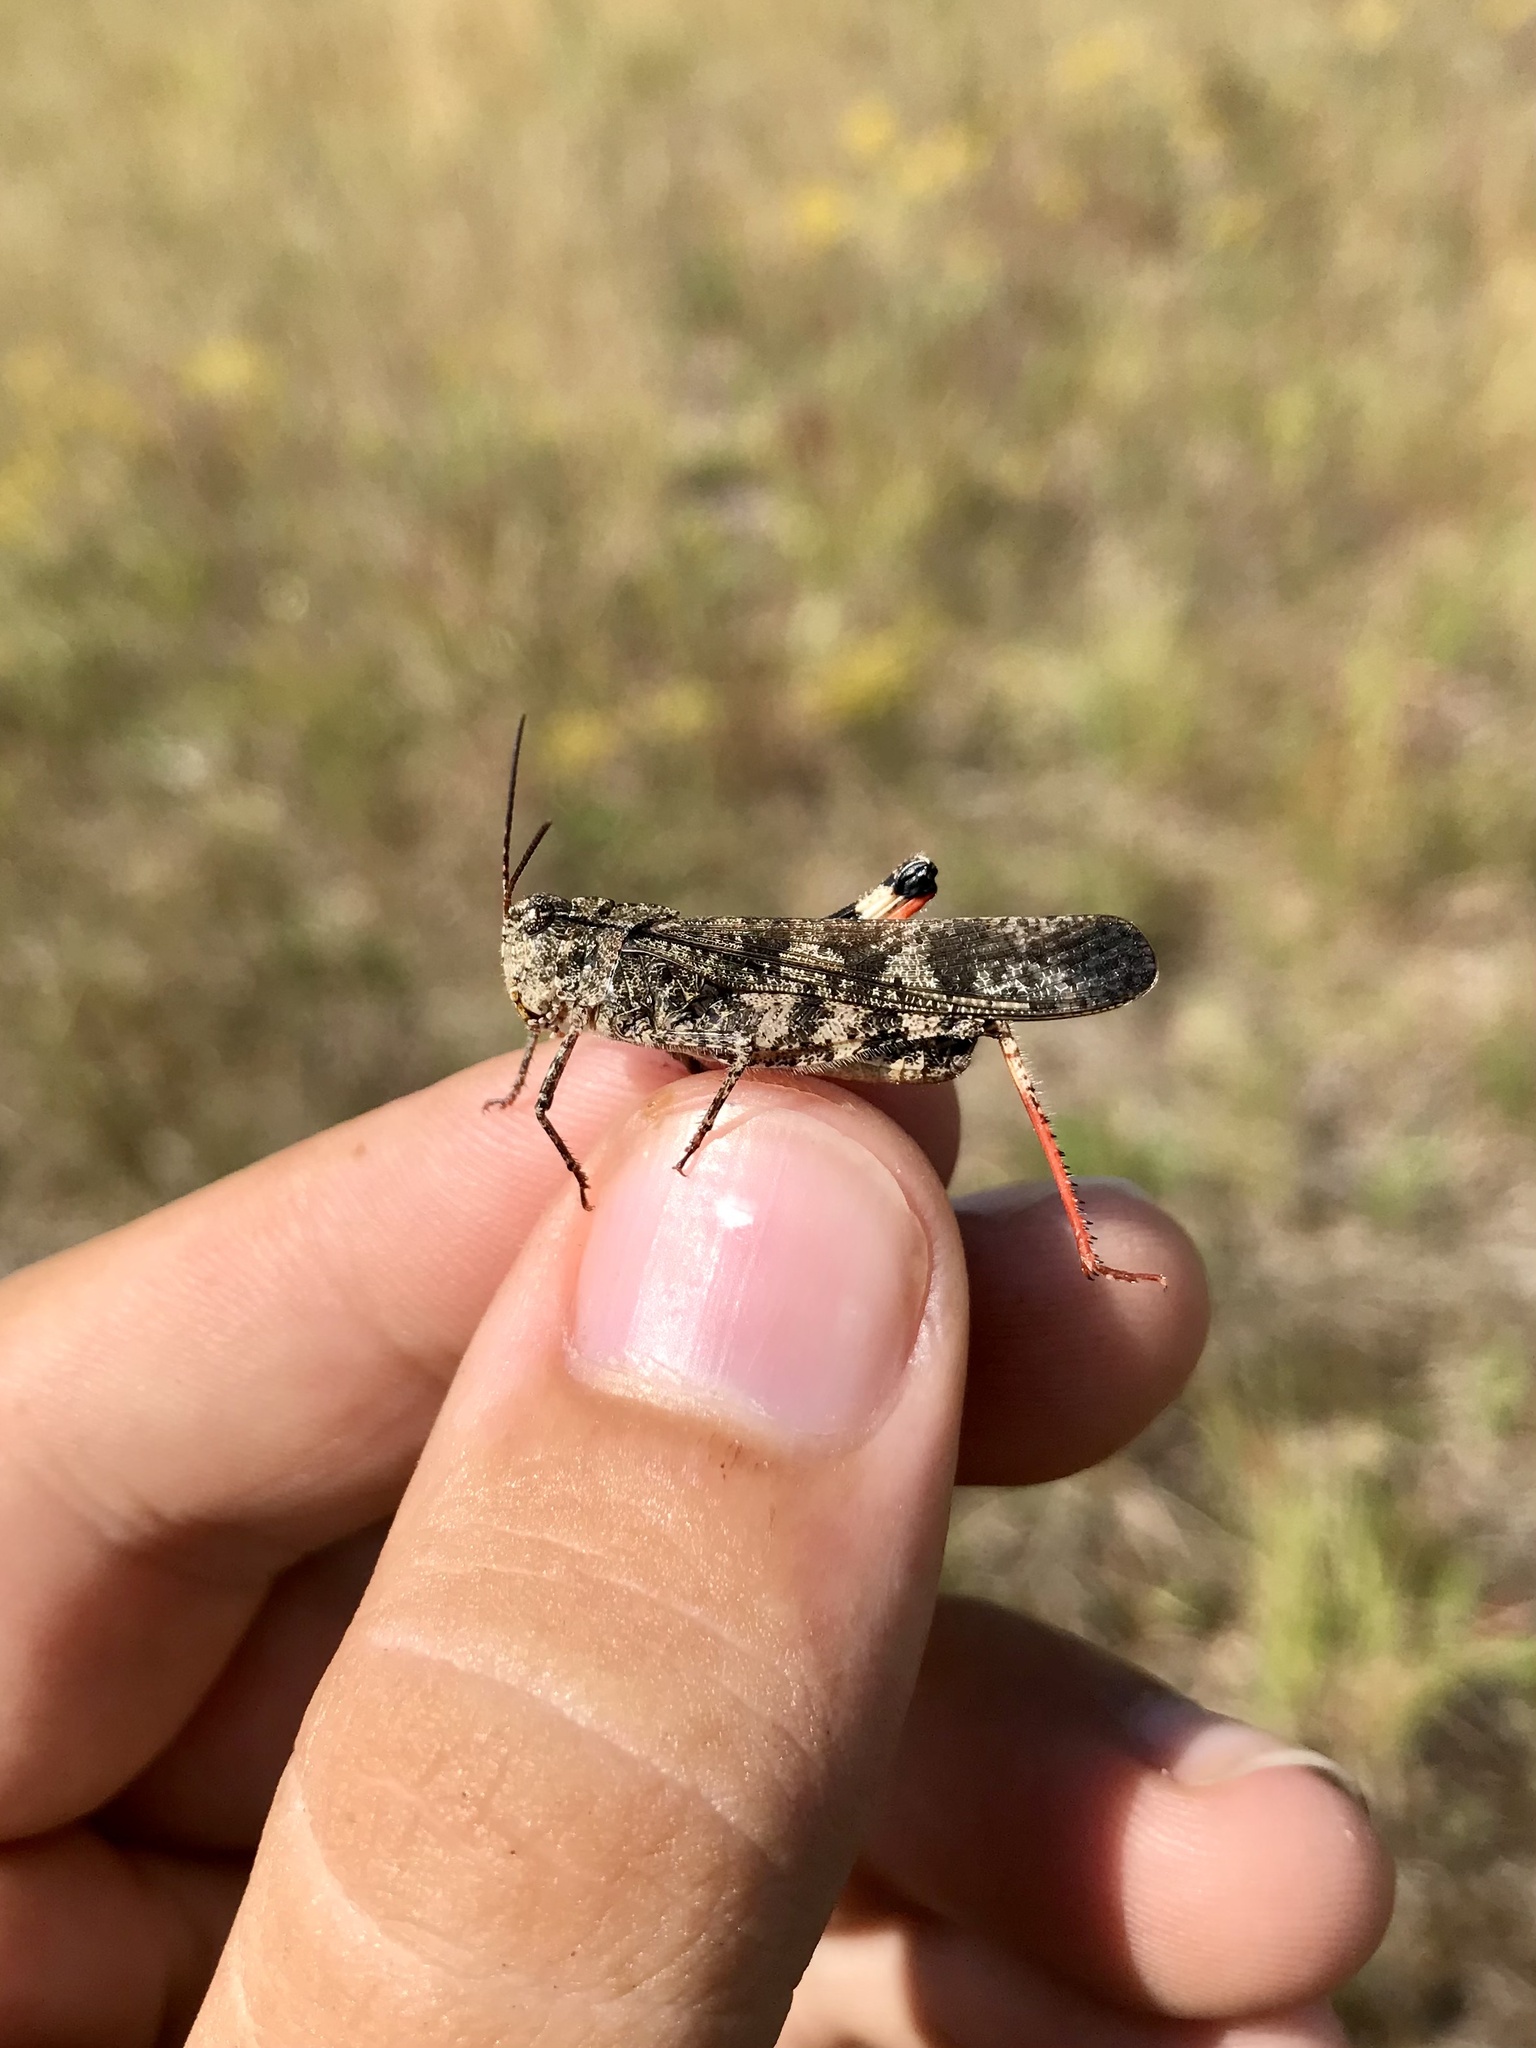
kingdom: Animalia
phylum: Arthropoda
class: Insecta
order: Orthoptera
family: Acrididae
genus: Spharagemon
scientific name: Spharagemon collare
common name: Mottled sand grasshopper
